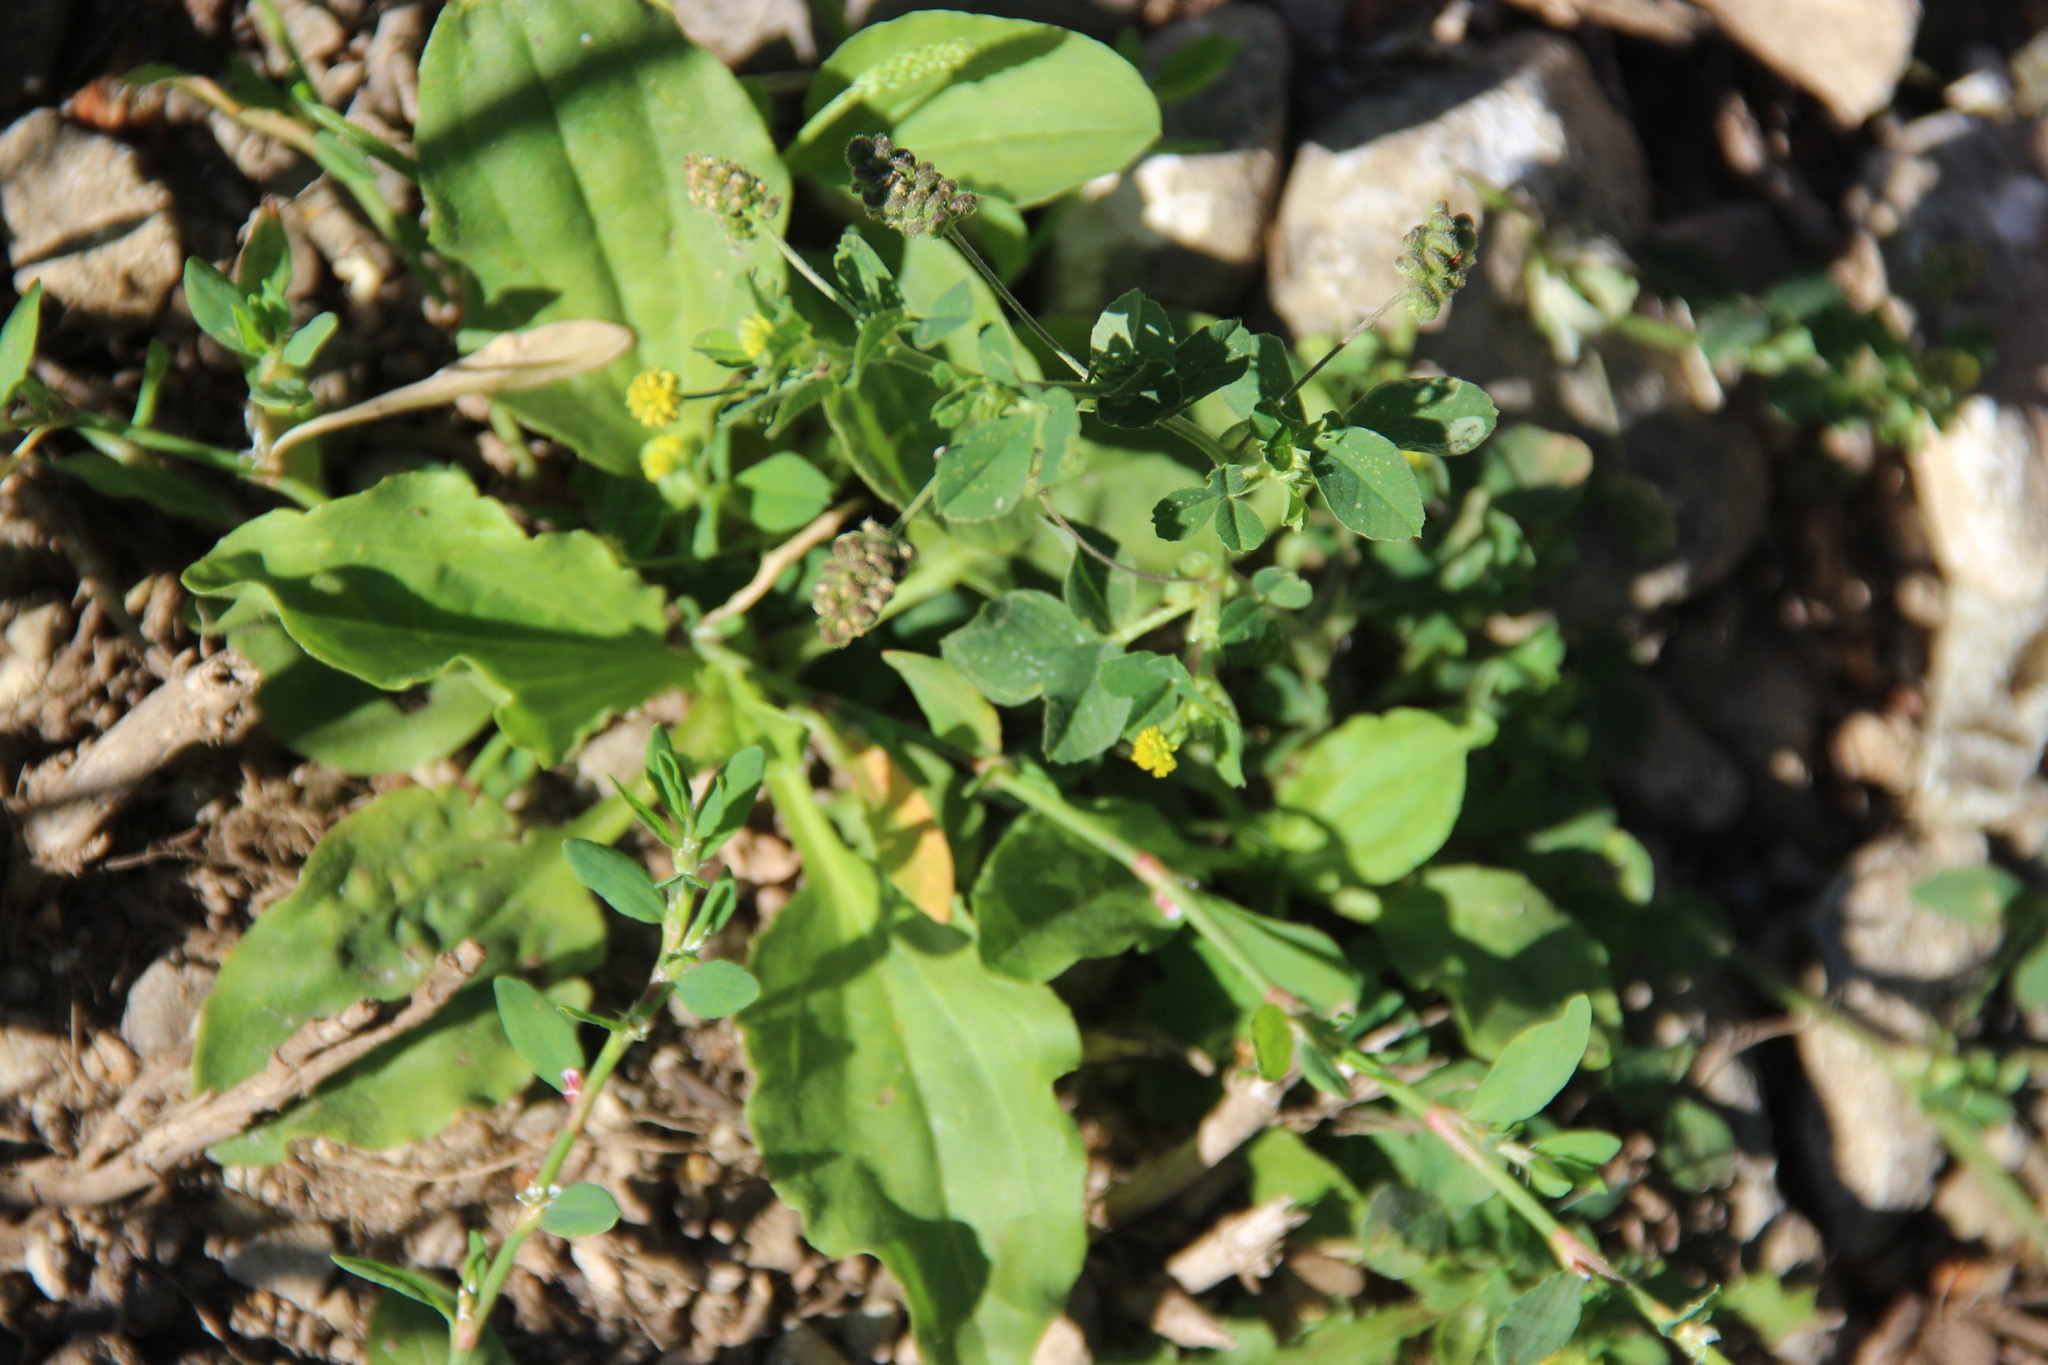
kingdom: Plantae
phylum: Tracheophyta
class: Magnoliopsida
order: Fabales
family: Fabaceae
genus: Medicago
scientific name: Medicago lupulina
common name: Black medick
